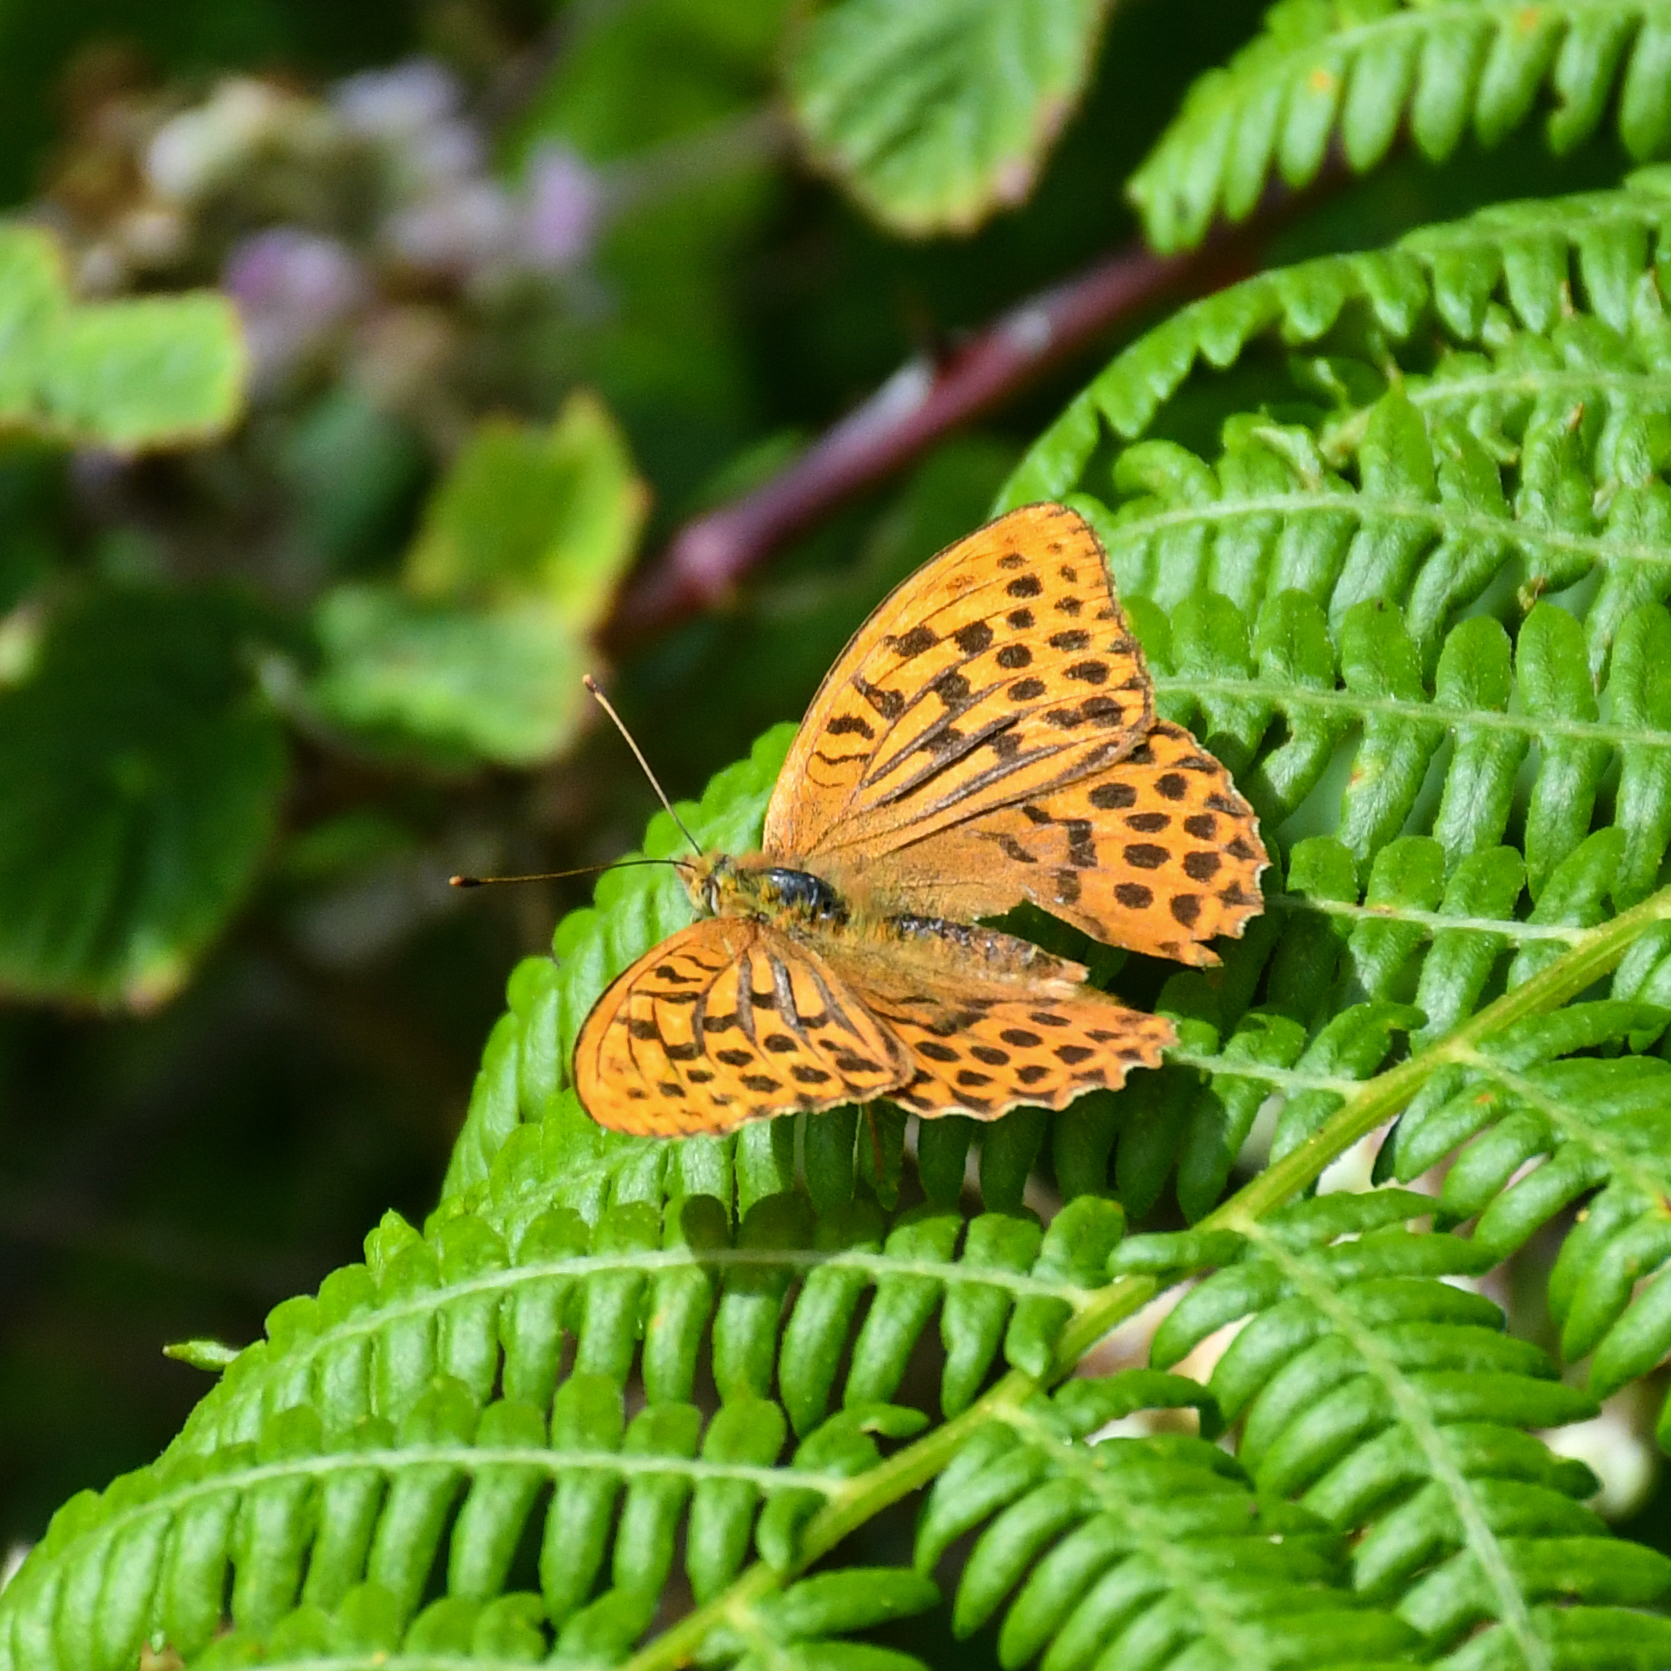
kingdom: Animalia
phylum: Arthropoda
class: Insecta
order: Lepidoptera
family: Nymphalidae
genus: Argynnis
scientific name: Argynnis paphia
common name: Silver-washed fritillary
